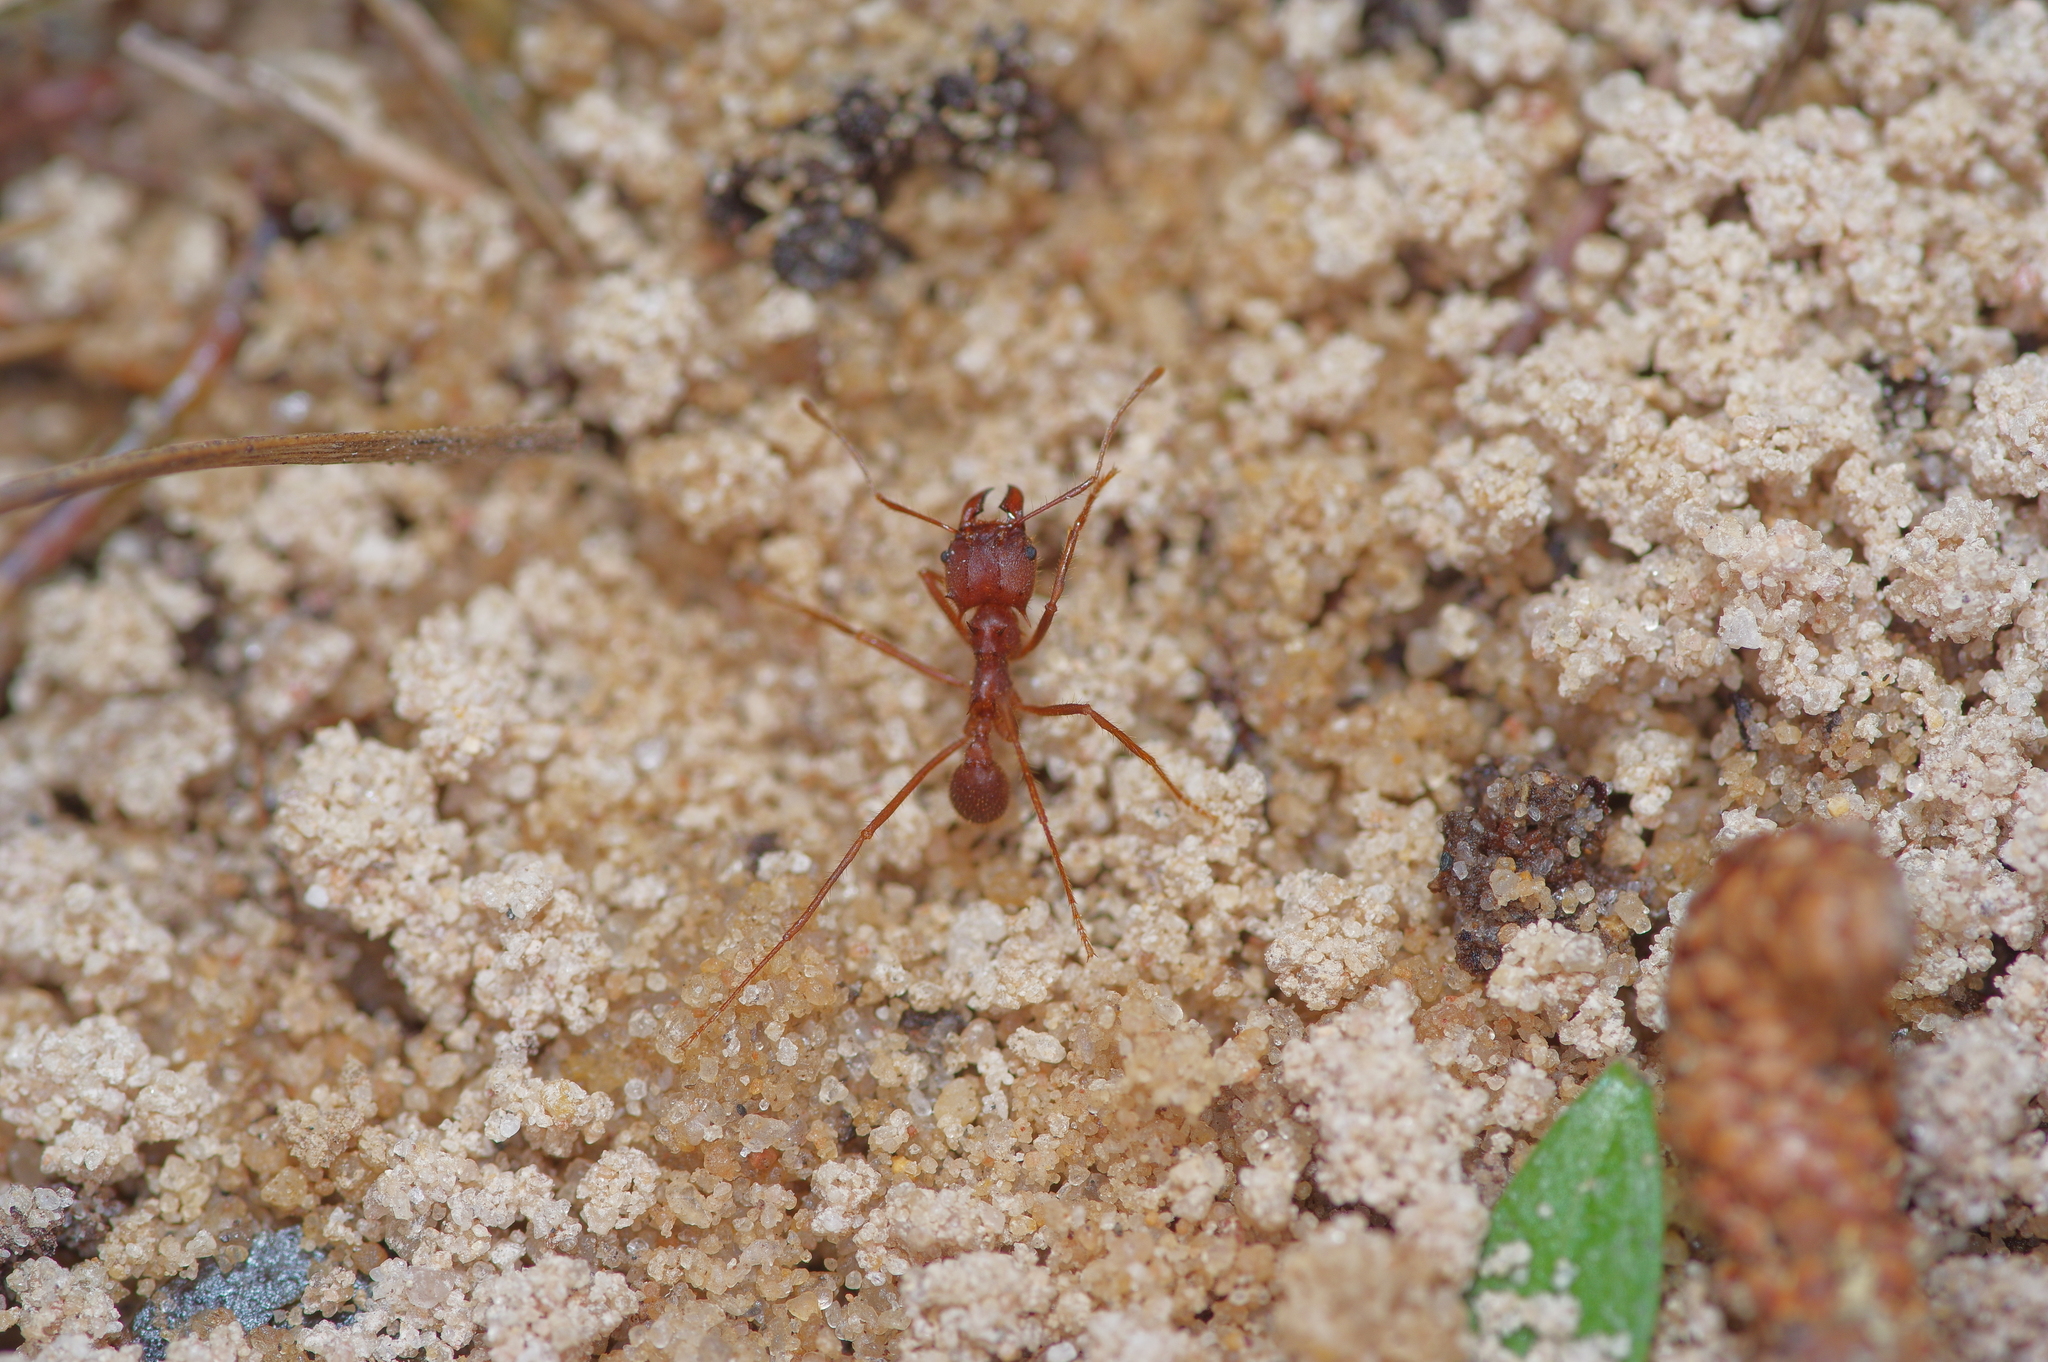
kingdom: Animalia
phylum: Arthropoda
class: Insecta
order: Hymenoptera
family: Formicidae
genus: Atta
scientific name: Atta texana
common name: Texas leafcutting ant
